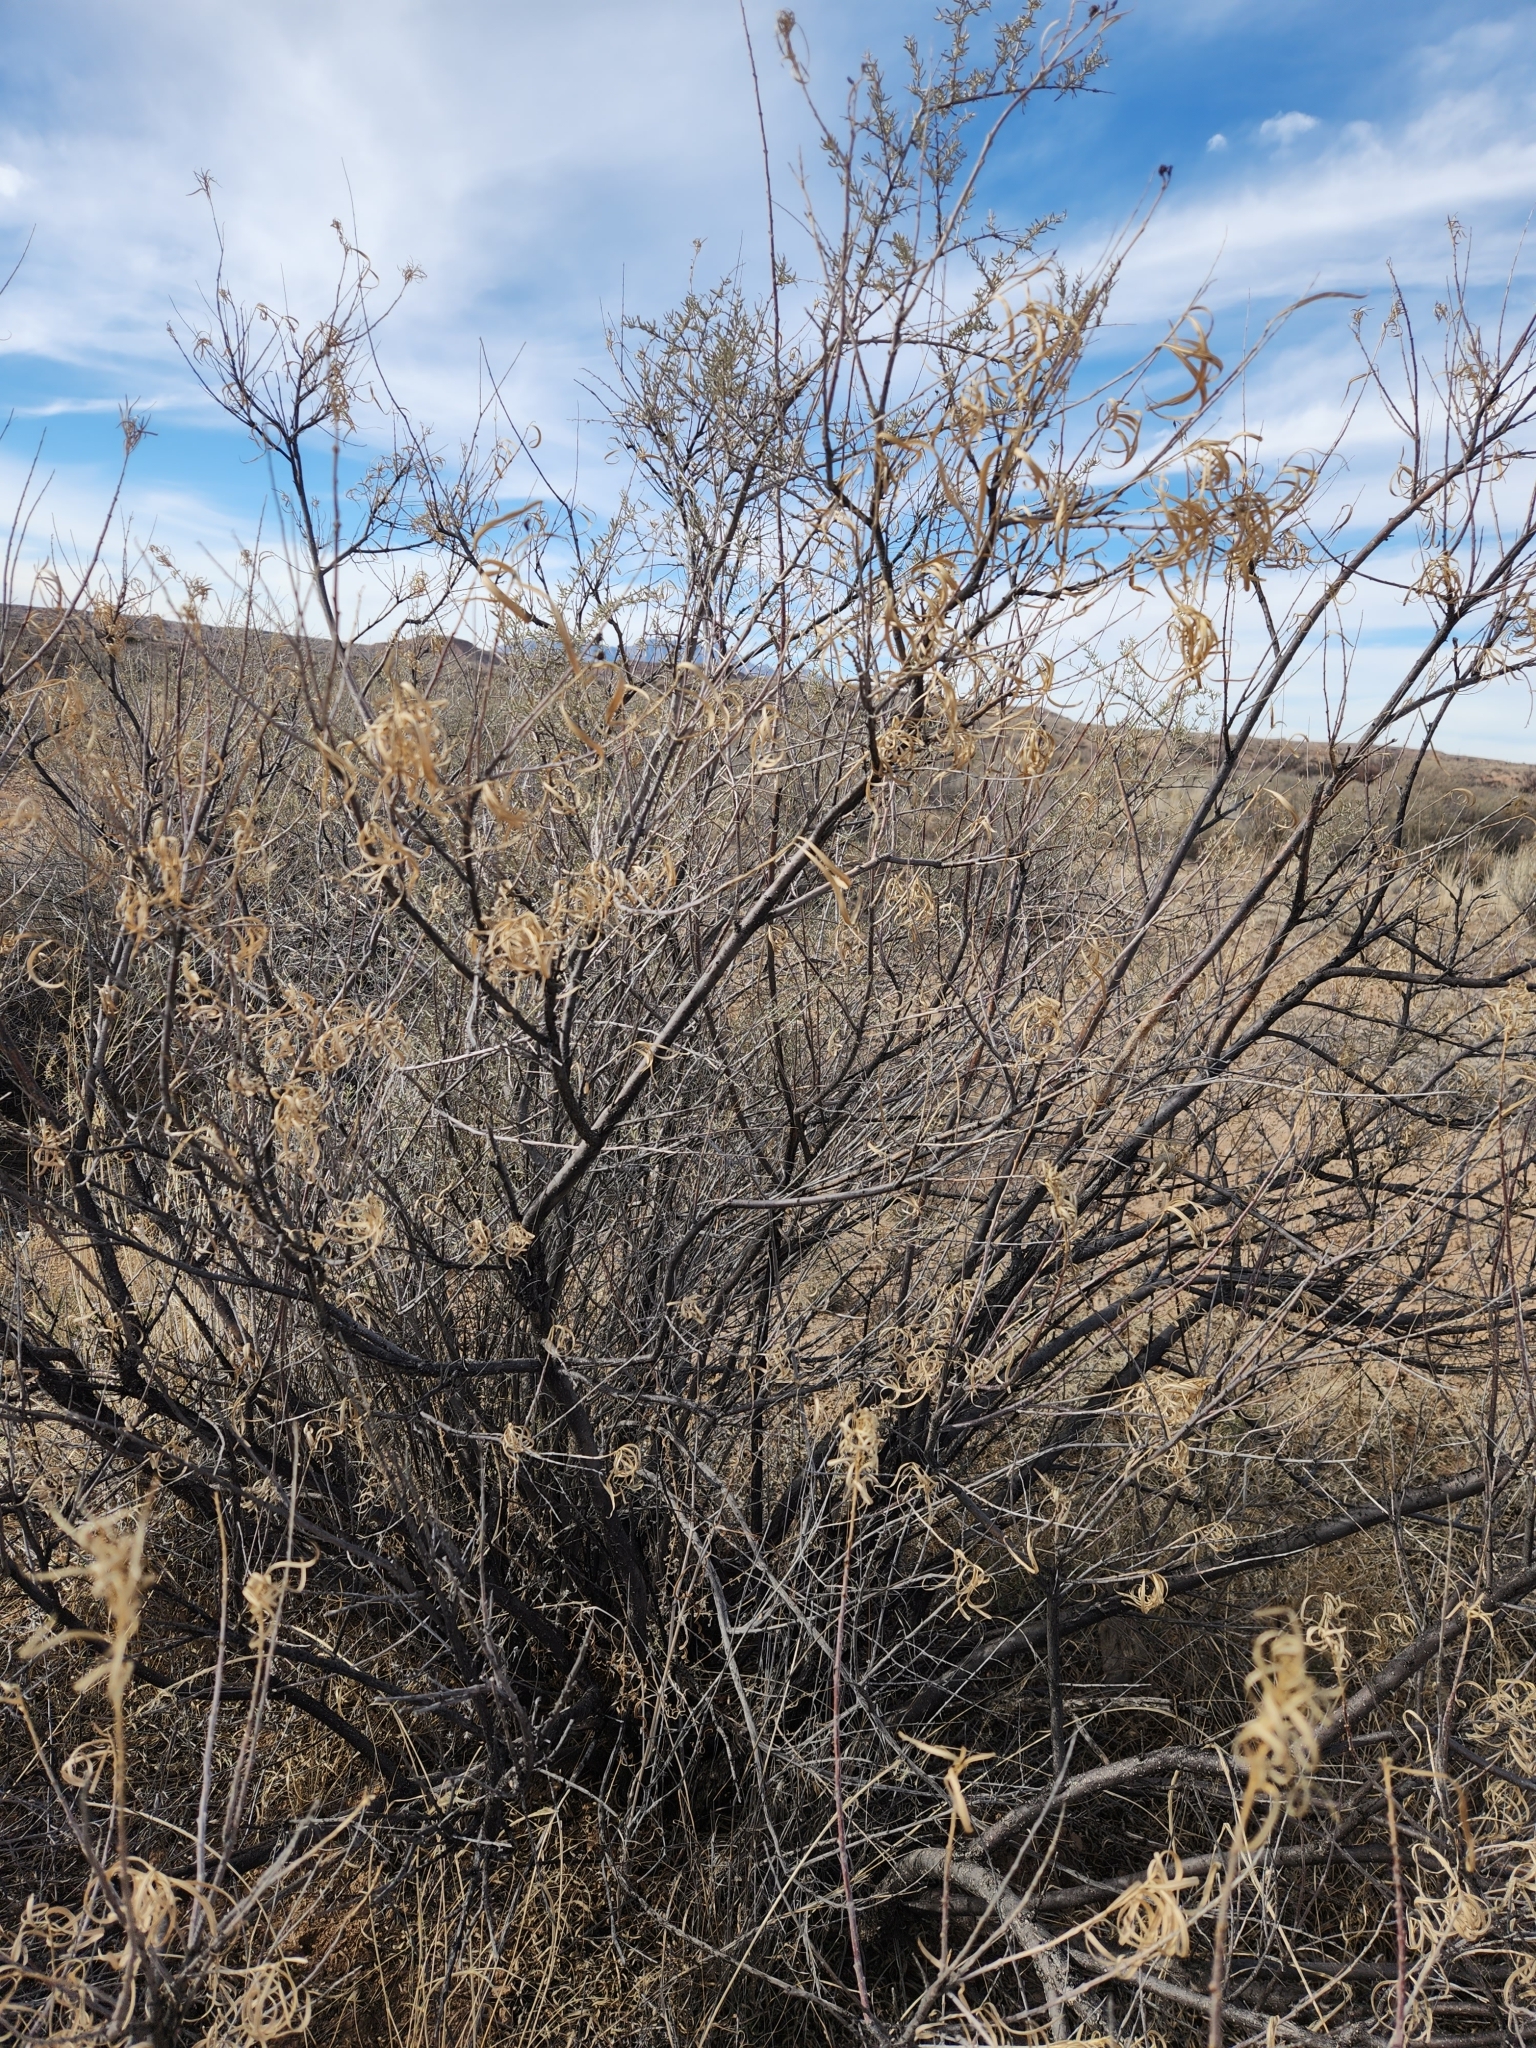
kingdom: Plantae
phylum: Tracheophyta
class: Magnoliopsida
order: Lamiales
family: Bignoniaceae
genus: Chilopsis
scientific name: Chilopsis linearis
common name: Desert-willow
